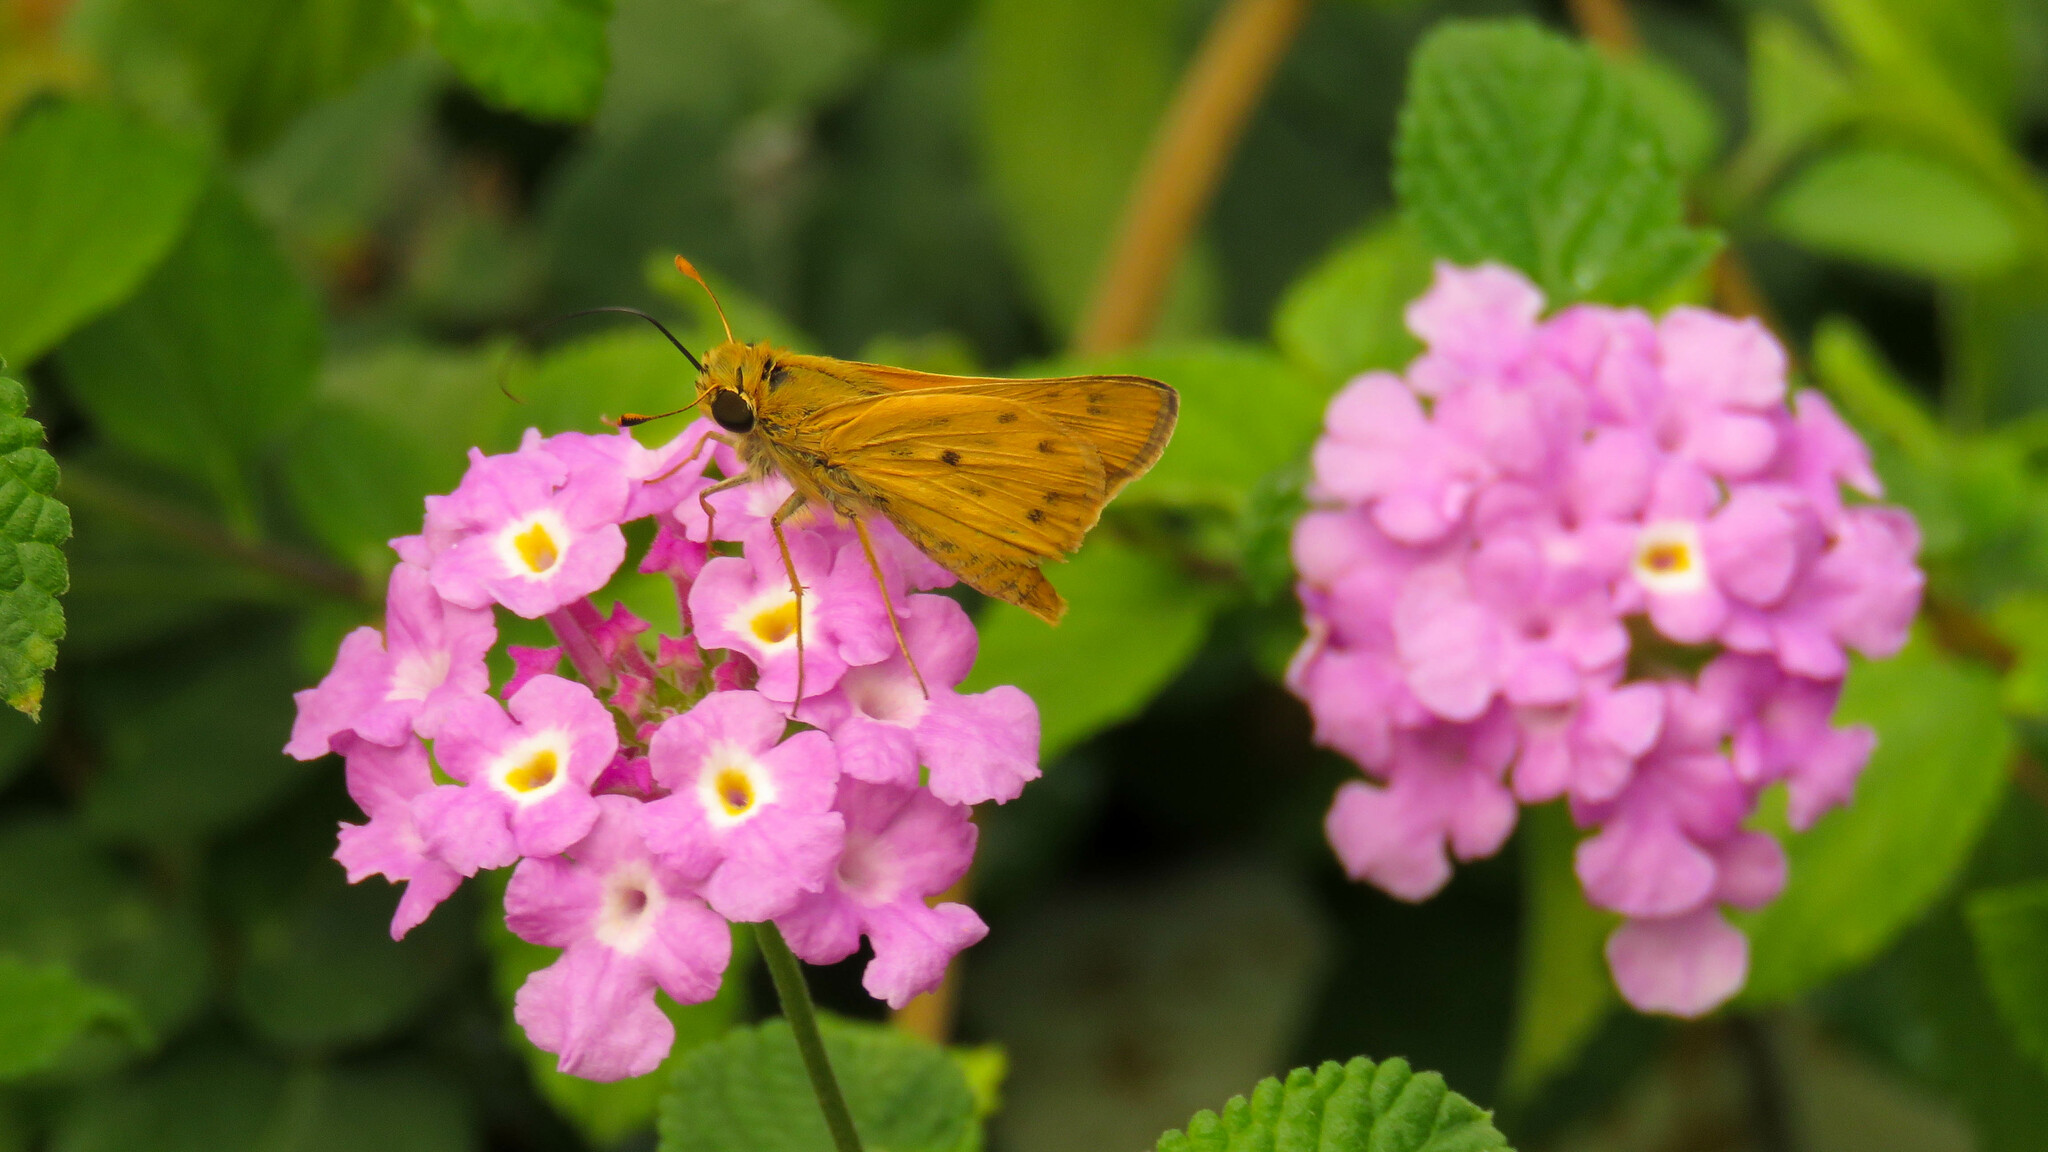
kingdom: Animalia
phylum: Arthropoda
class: Insecta
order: Lepidoptera
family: Hesperiidae
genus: Hylephila
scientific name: Hylephila phyleus
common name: Fiery skipper
